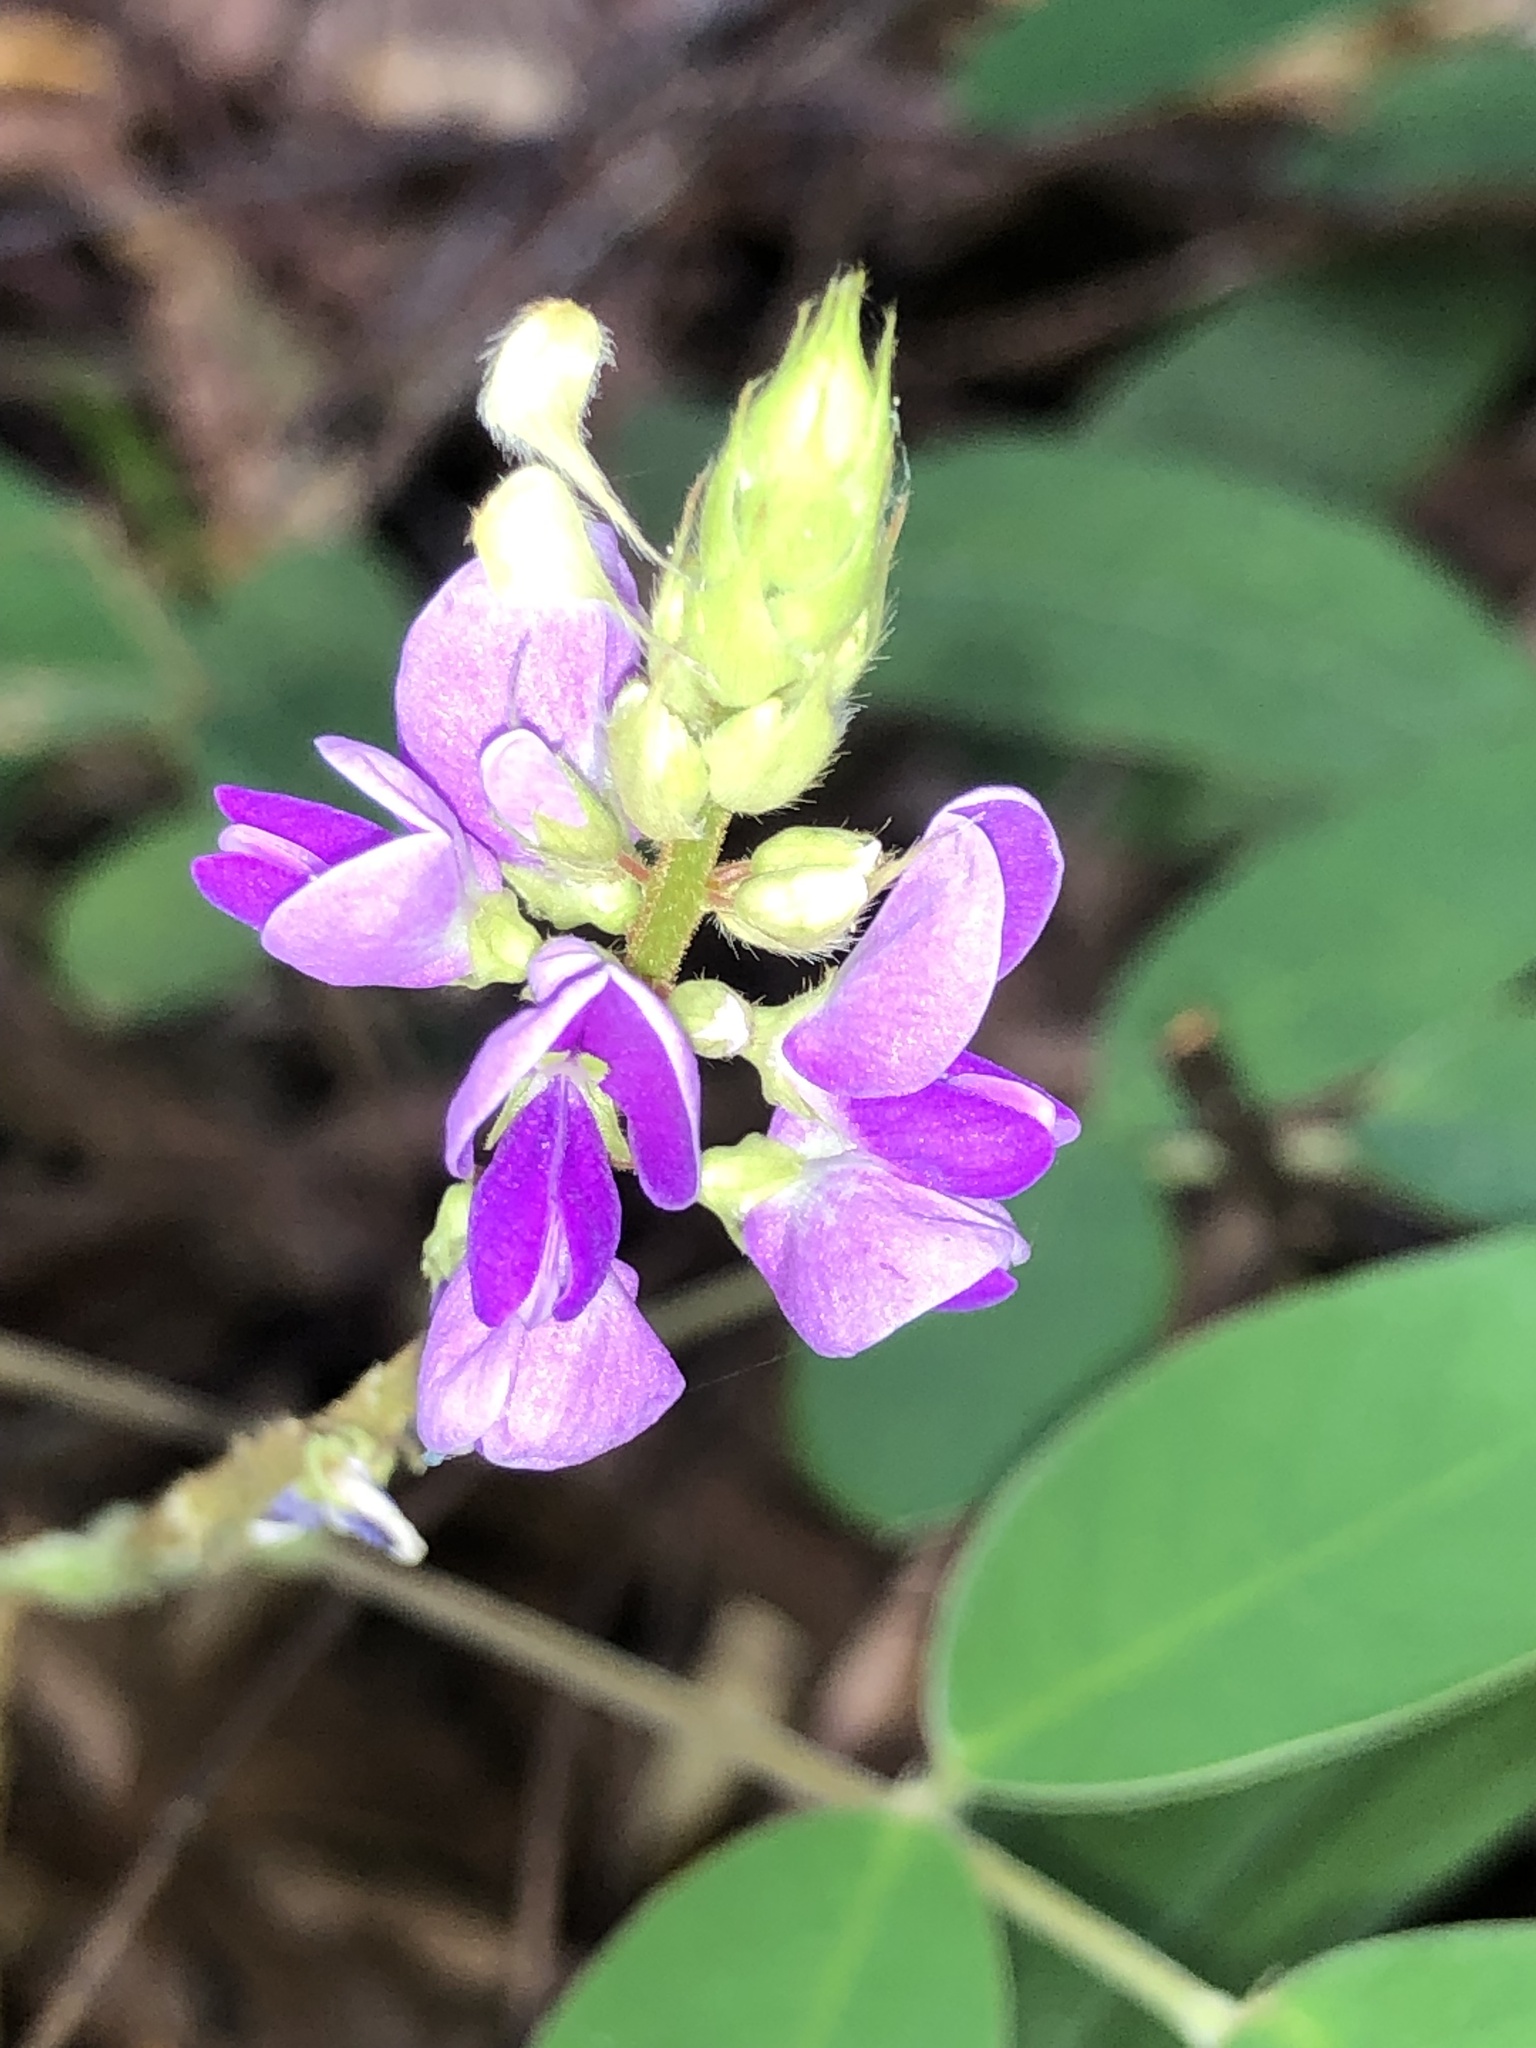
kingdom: Plantae
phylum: Tracheophyta
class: Magnoliopsida
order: Fabales
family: Fabaceae
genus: Grona
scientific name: Grona nemorosa
